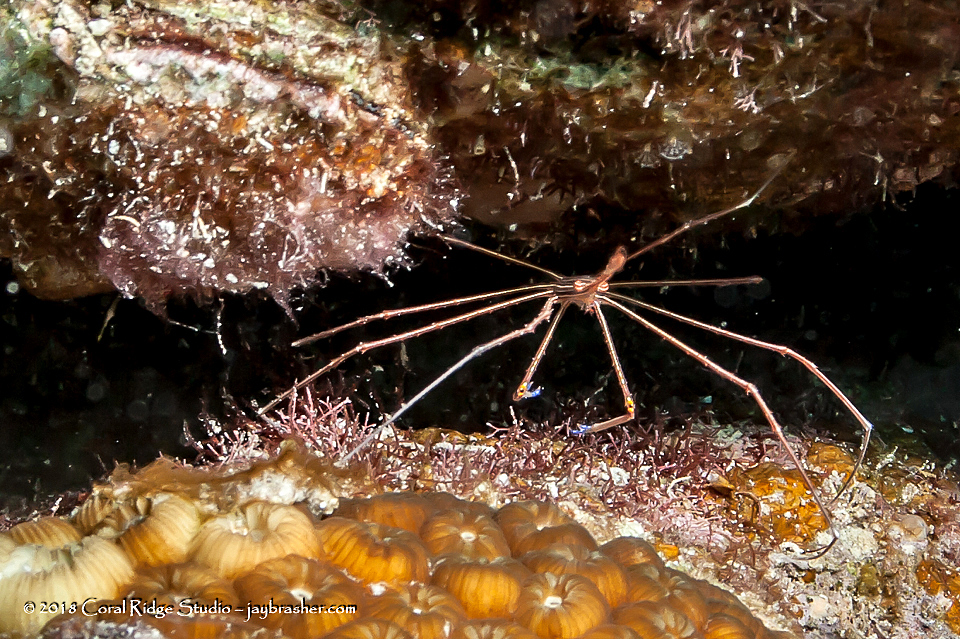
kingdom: Animalia
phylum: Arthropoda
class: Malacostraca
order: Decapoda
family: Inachoididae
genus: Stenorhynchus
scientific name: Stenorhynchus seticornis
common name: Arrow crab
